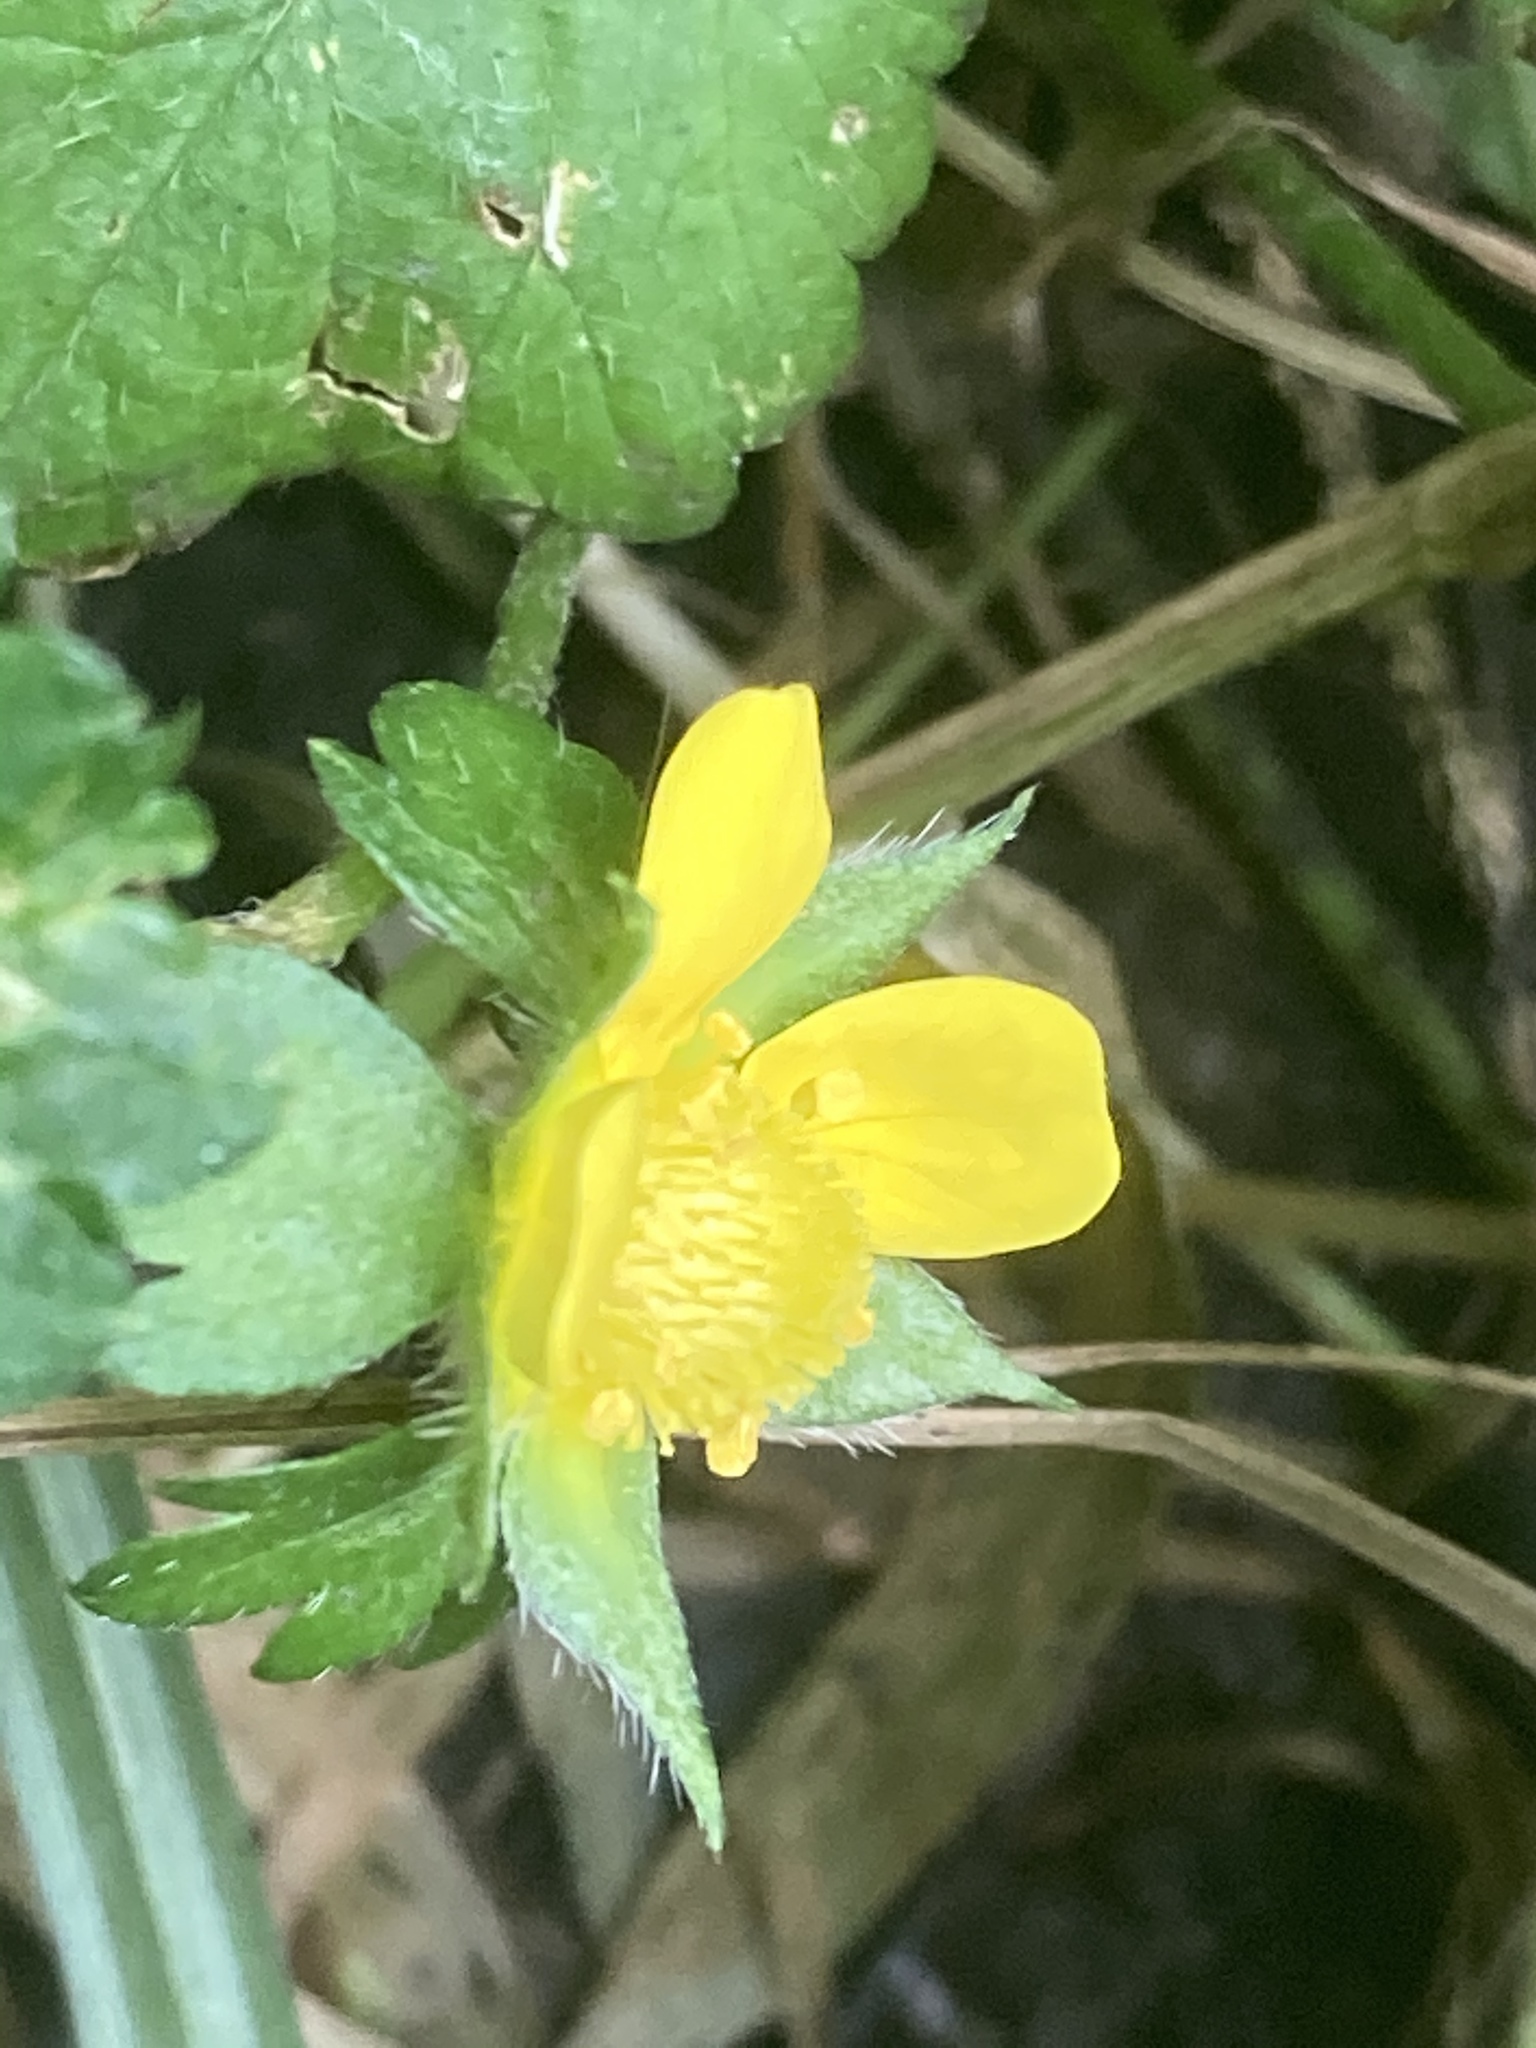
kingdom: Plantae
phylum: Tracheophyta
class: Magnoliopsida
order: Rosales
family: Rosaceae
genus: Potentilla
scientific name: Potentilla indica
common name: Yellow-flowered strawberry
